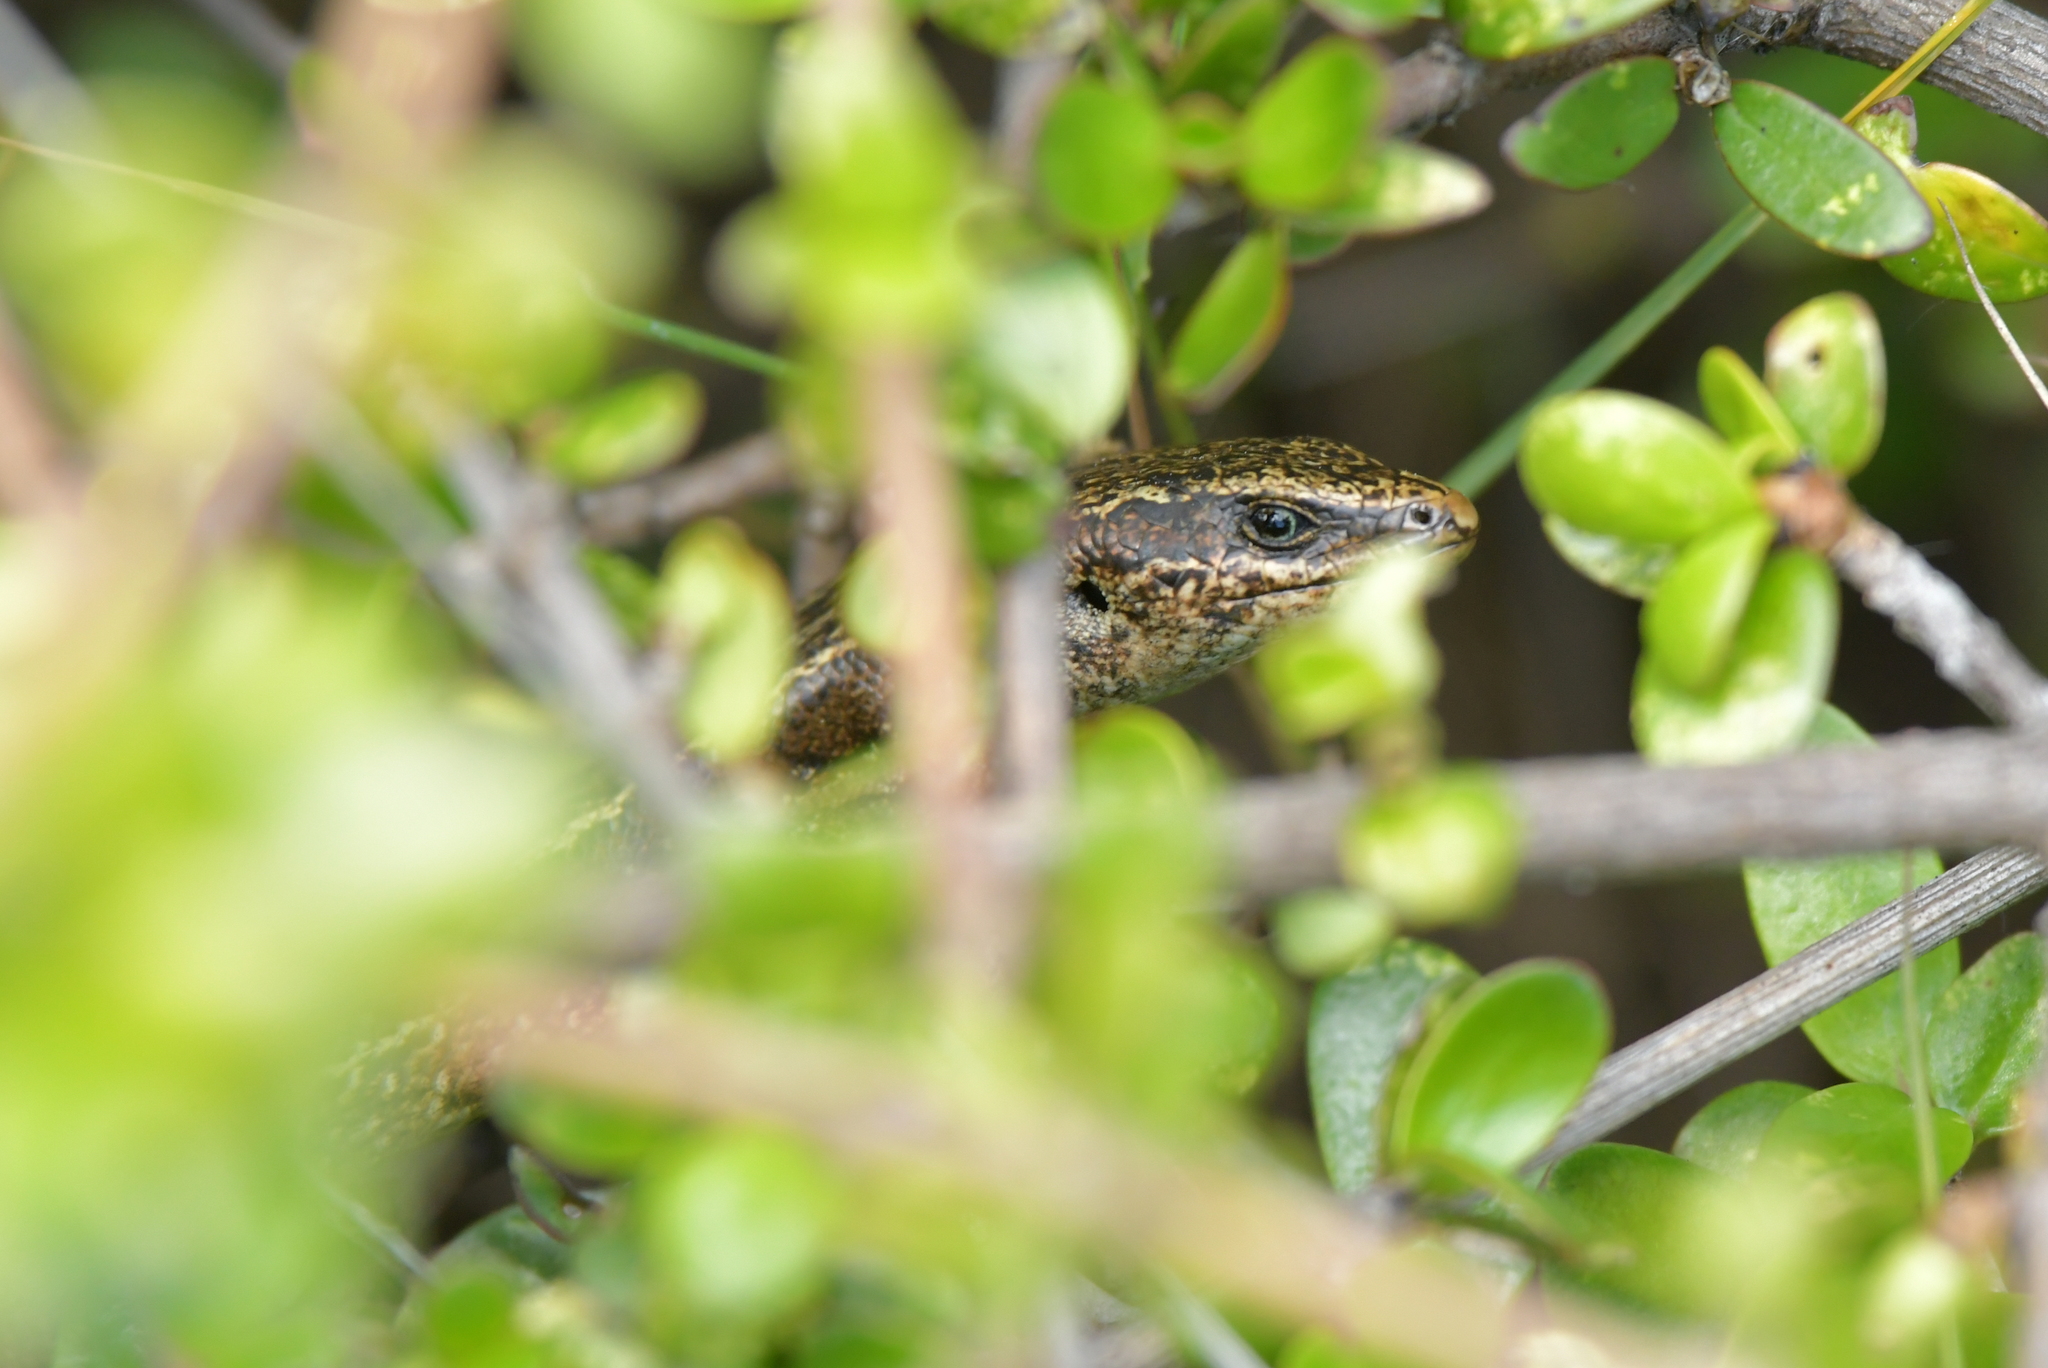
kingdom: Animalia
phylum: Chordata
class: Squamata
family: Scincidae
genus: Oligosoma
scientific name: Oligosoma polychroma
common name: Common new zealand skink
